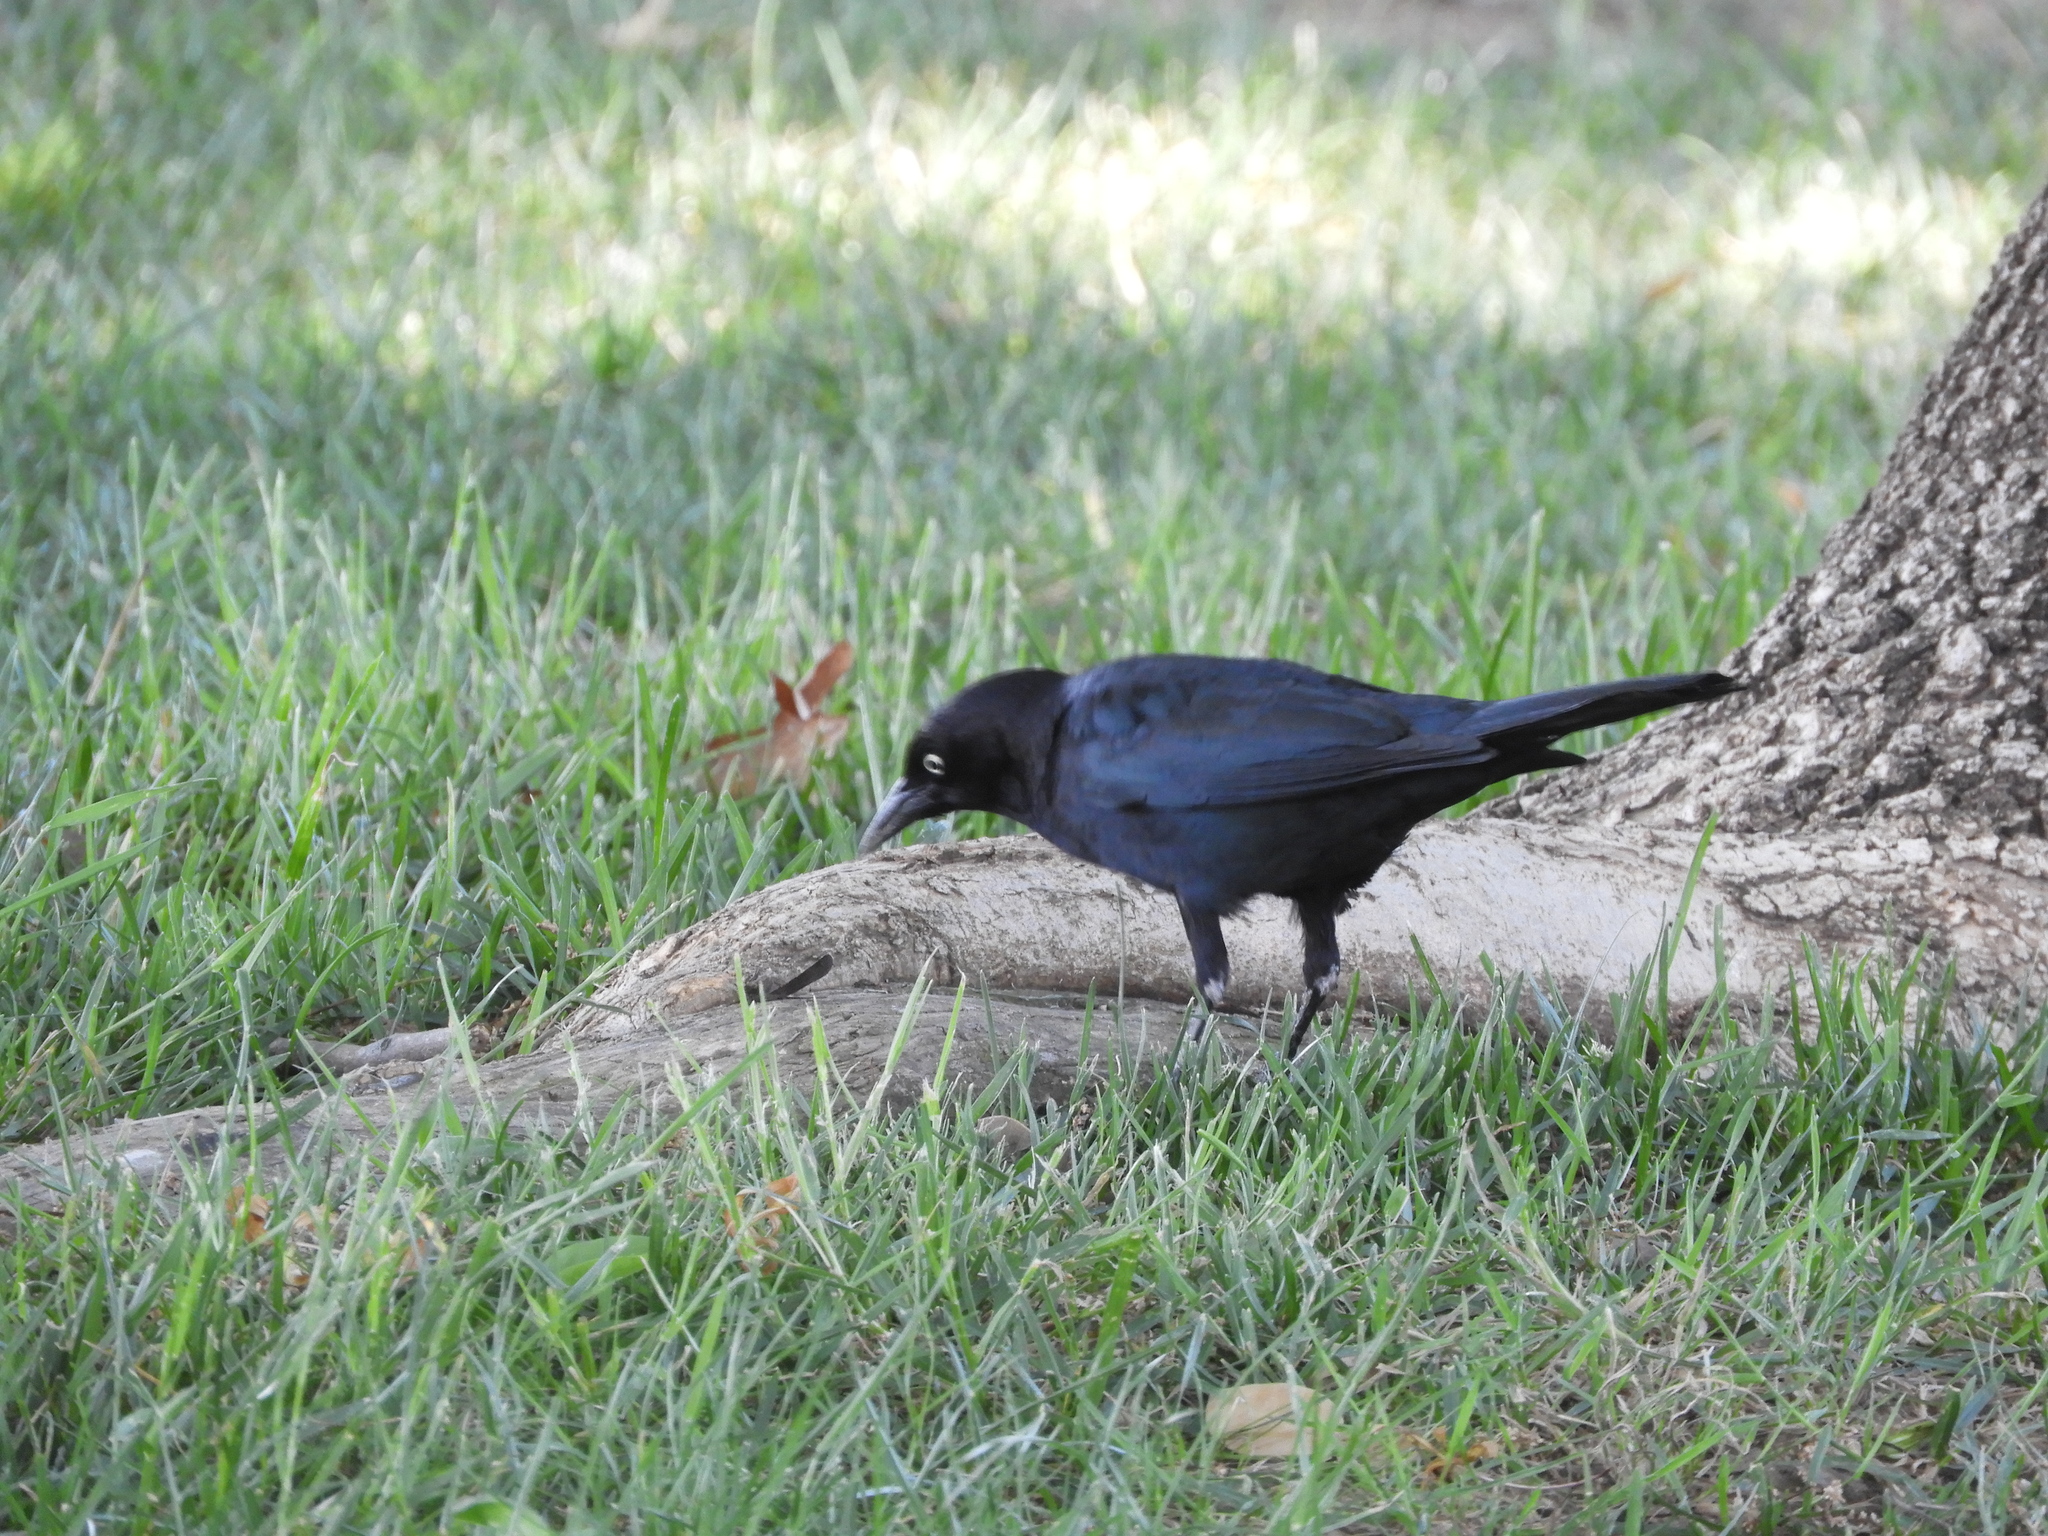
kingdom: Animalia
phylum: Chordata
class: Aves
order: Passeriformes
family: Icteridae
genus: Euphagus
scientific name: Euphagus cyanocephalus
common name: Brewer's blackbird
